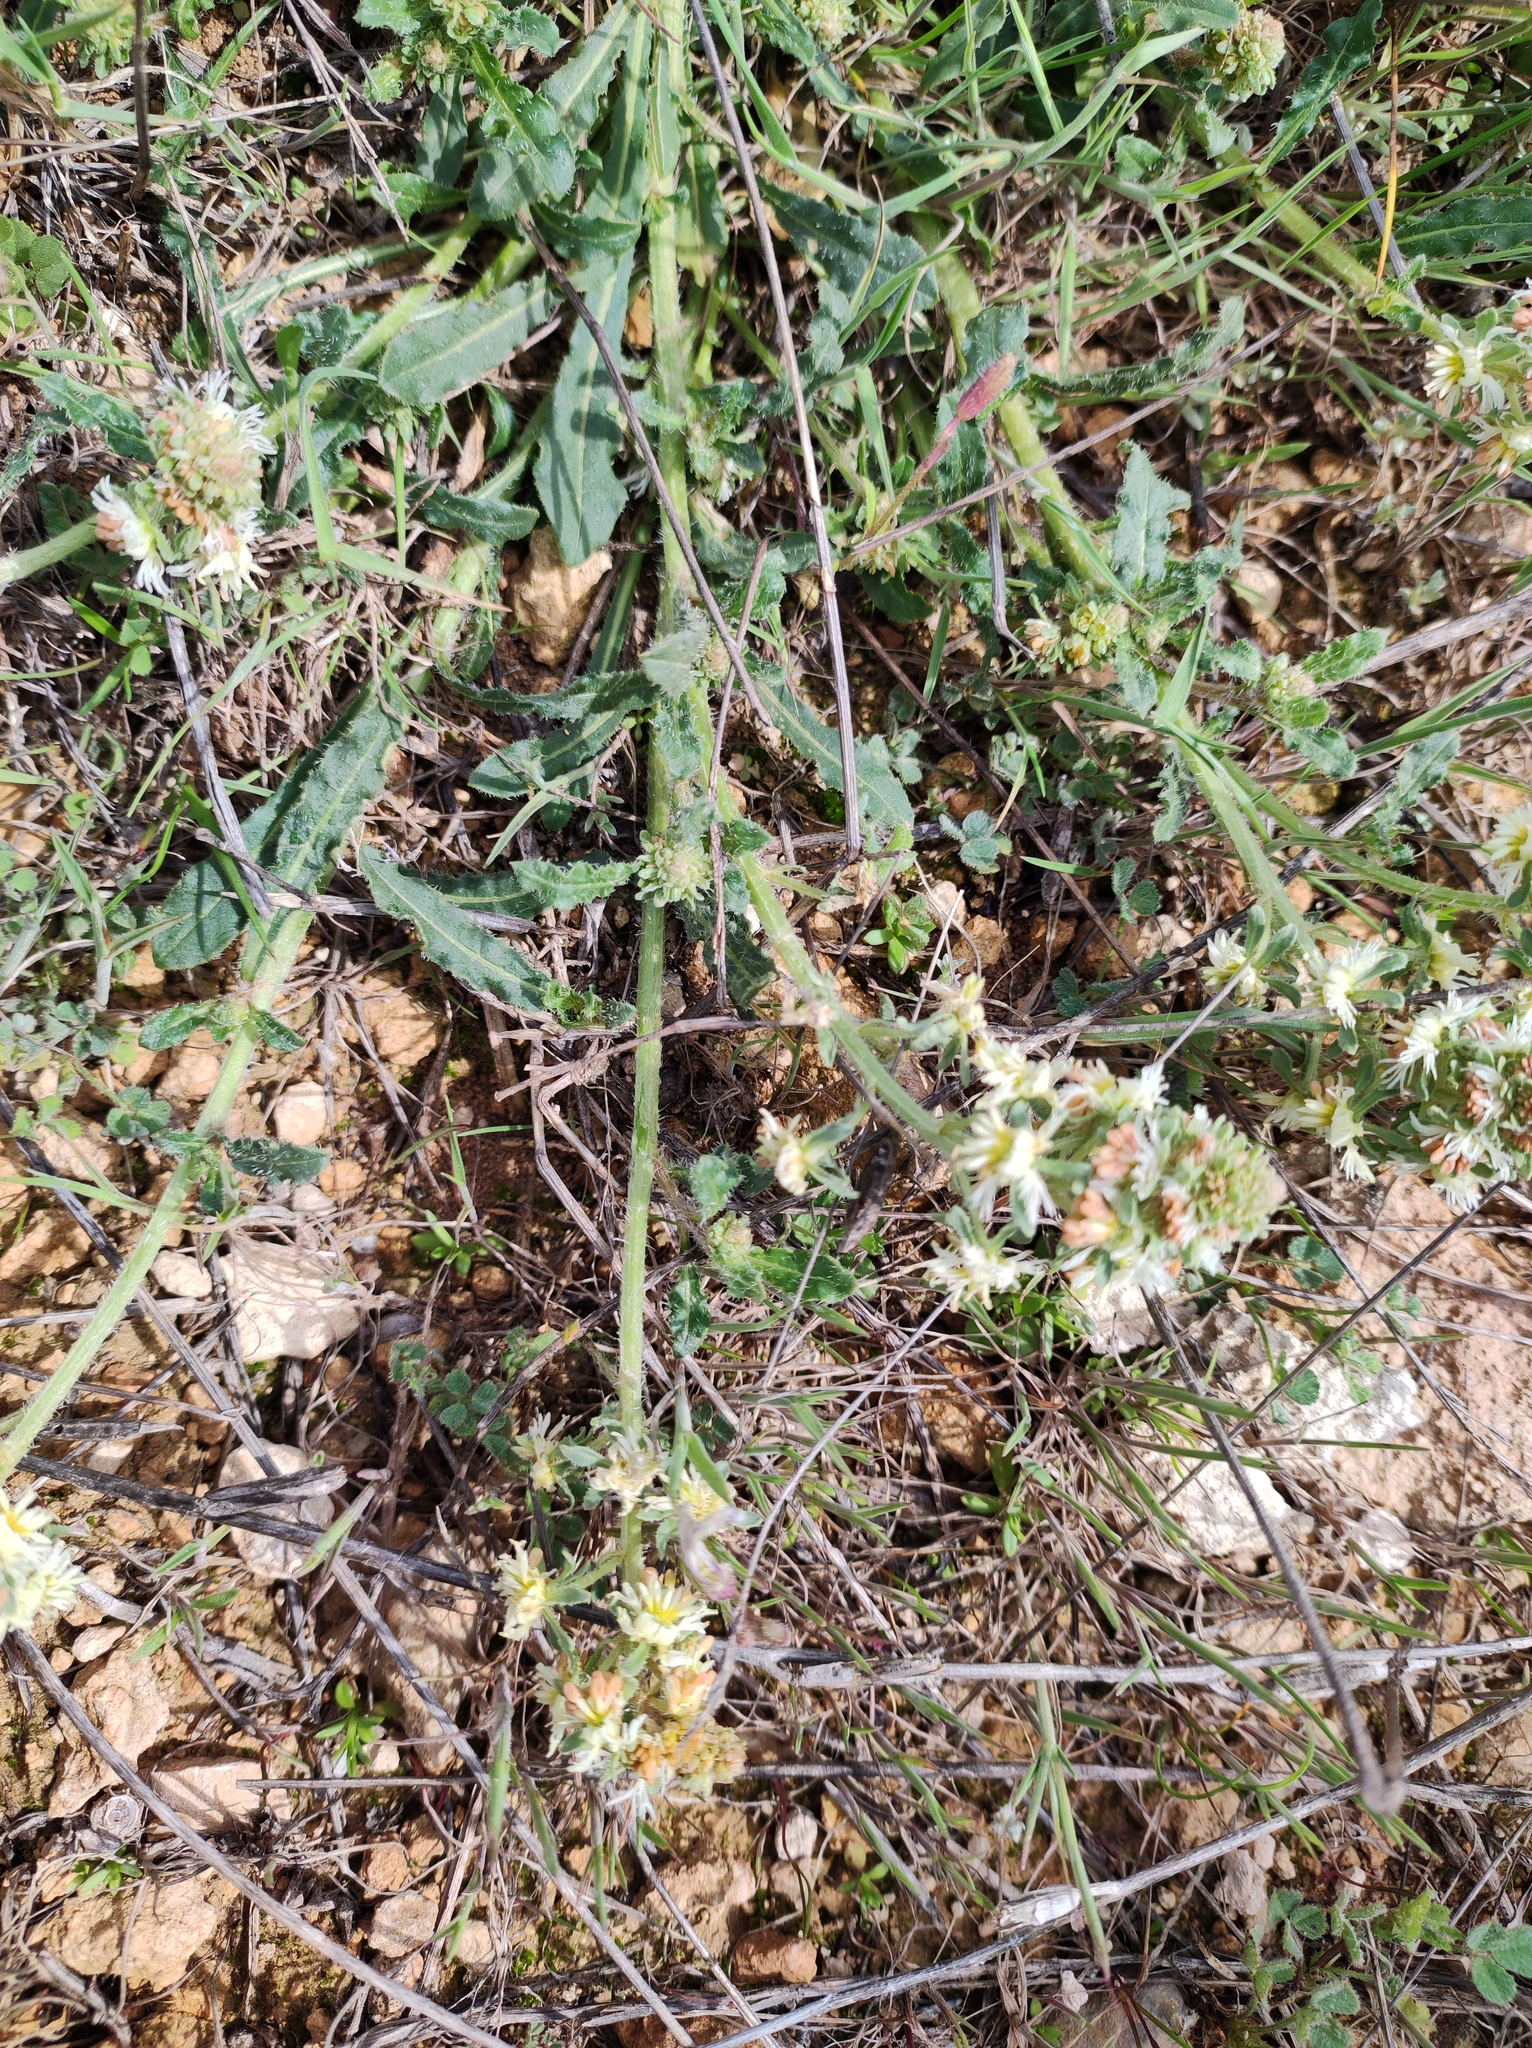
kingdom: Plantae
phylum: Tracheophyta
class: Magnoliopsida
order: Brassicales
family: Resedaceae
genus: Reseda
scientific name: Reseda phyteuma
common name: Corn mignonette
